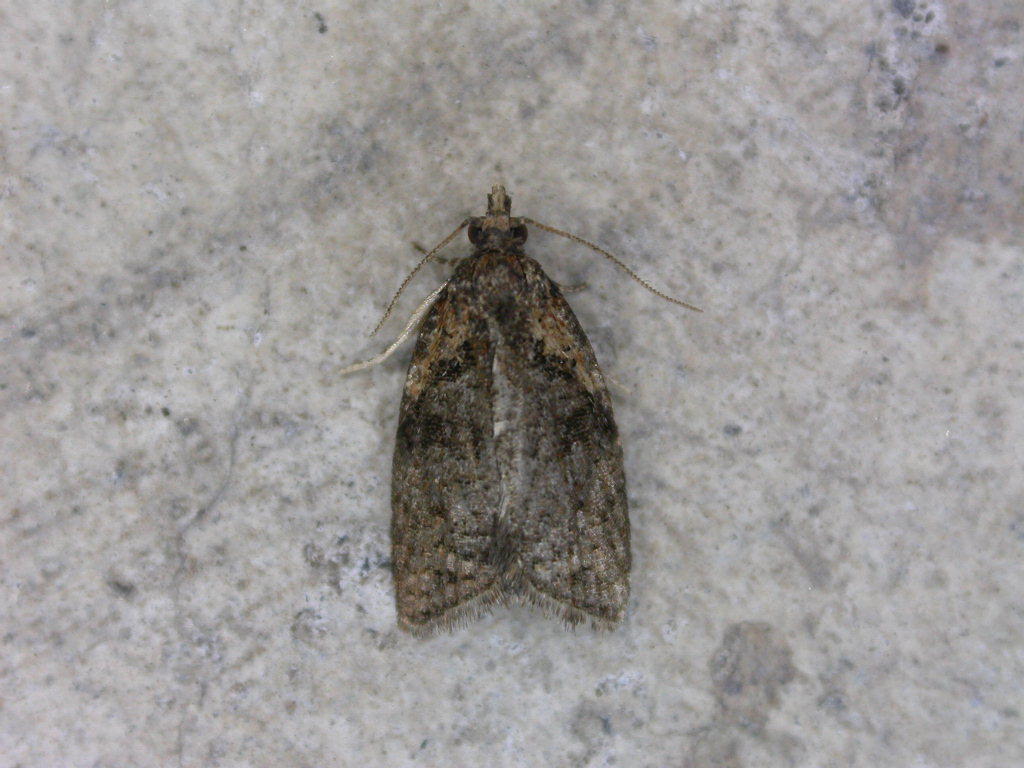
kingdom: Animalia
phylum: Arthropoda
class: Insecta
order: Lepidoptera
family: Tortricidae
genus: Capua
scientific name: Capua intractana
